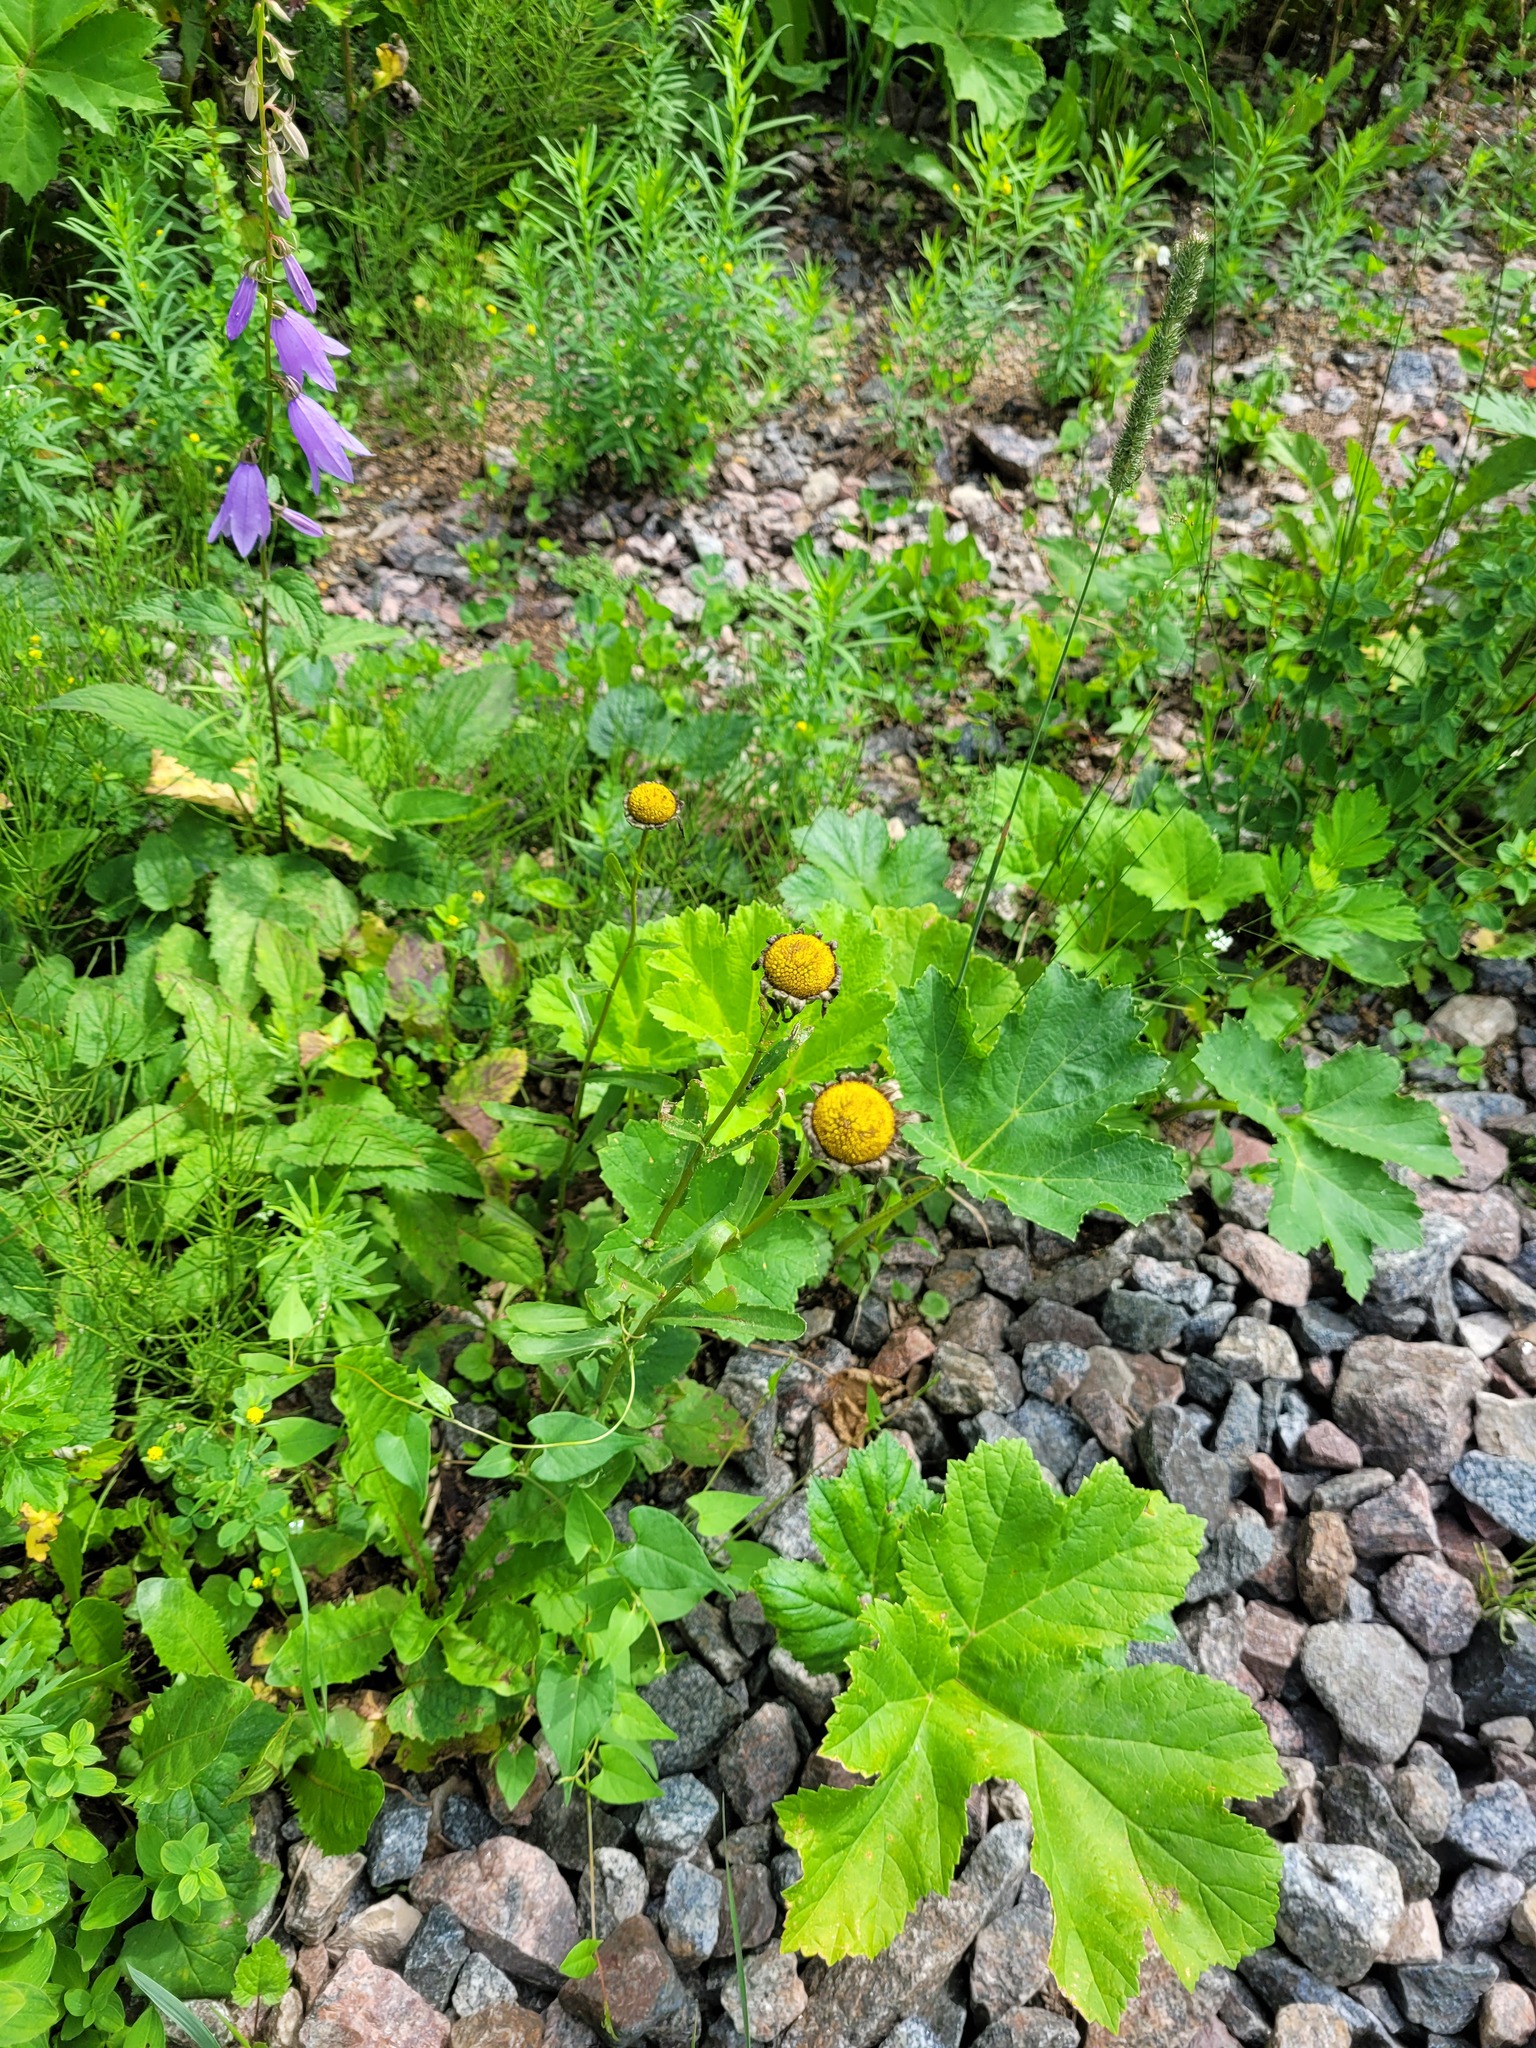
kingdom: Plantae
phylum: Tracheophyta
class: Magnoliopsida
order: Asterales
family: Asteraceae
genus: Leucanthemum
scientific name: Leucanthemum vulgare
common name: Oxeye daisy
